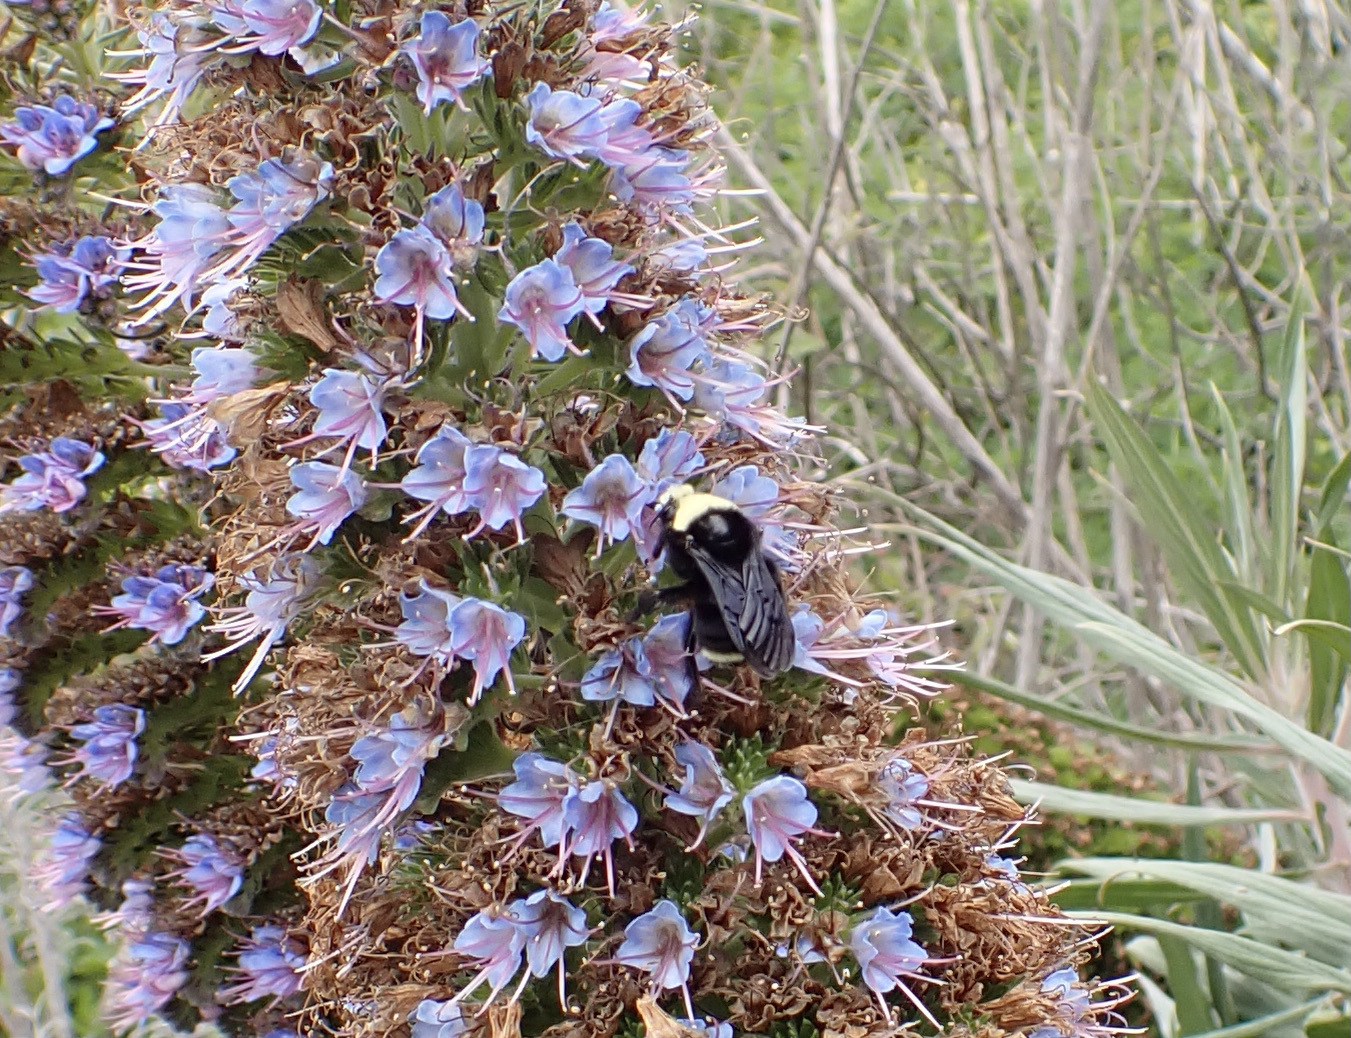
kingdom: Animalia
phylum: Arthropoda
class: Insecta
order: Hymenoptera
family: Apidae
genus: Bombus
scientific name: Bombus vosnesenskii
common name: Vosnesensky bumble bee
